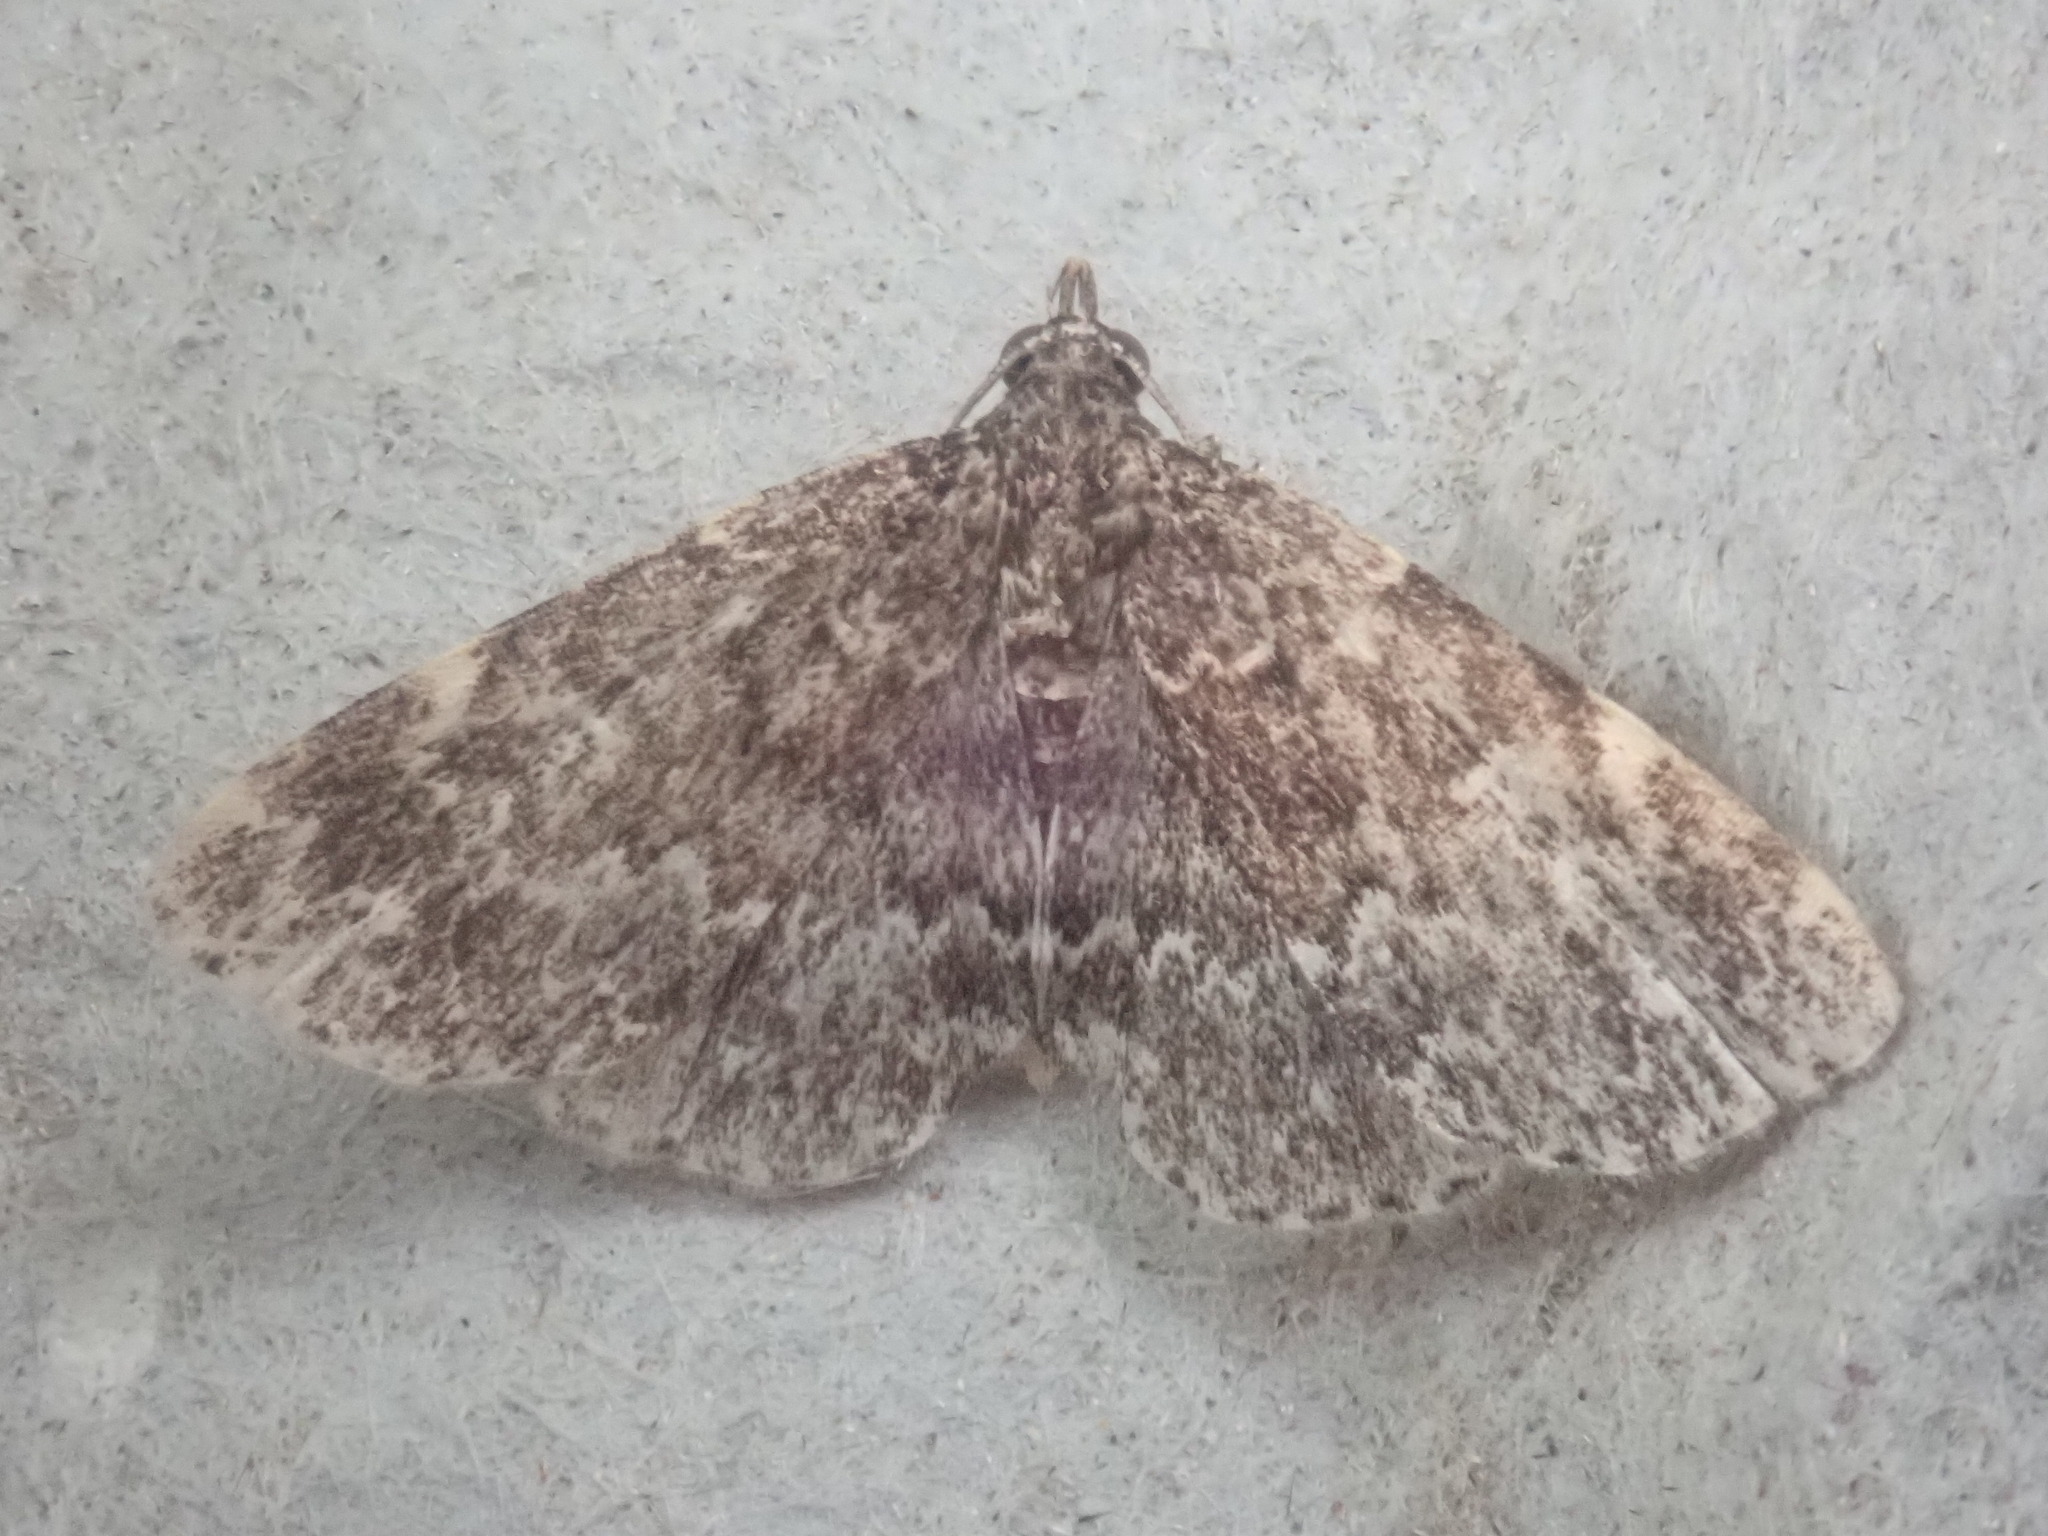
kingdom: Animalia
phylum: Arthropoda
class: Insecta
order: Lepidoptera
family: Erebidae
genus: Idia
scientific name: Idia scobialis
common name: Smoky idia moth
